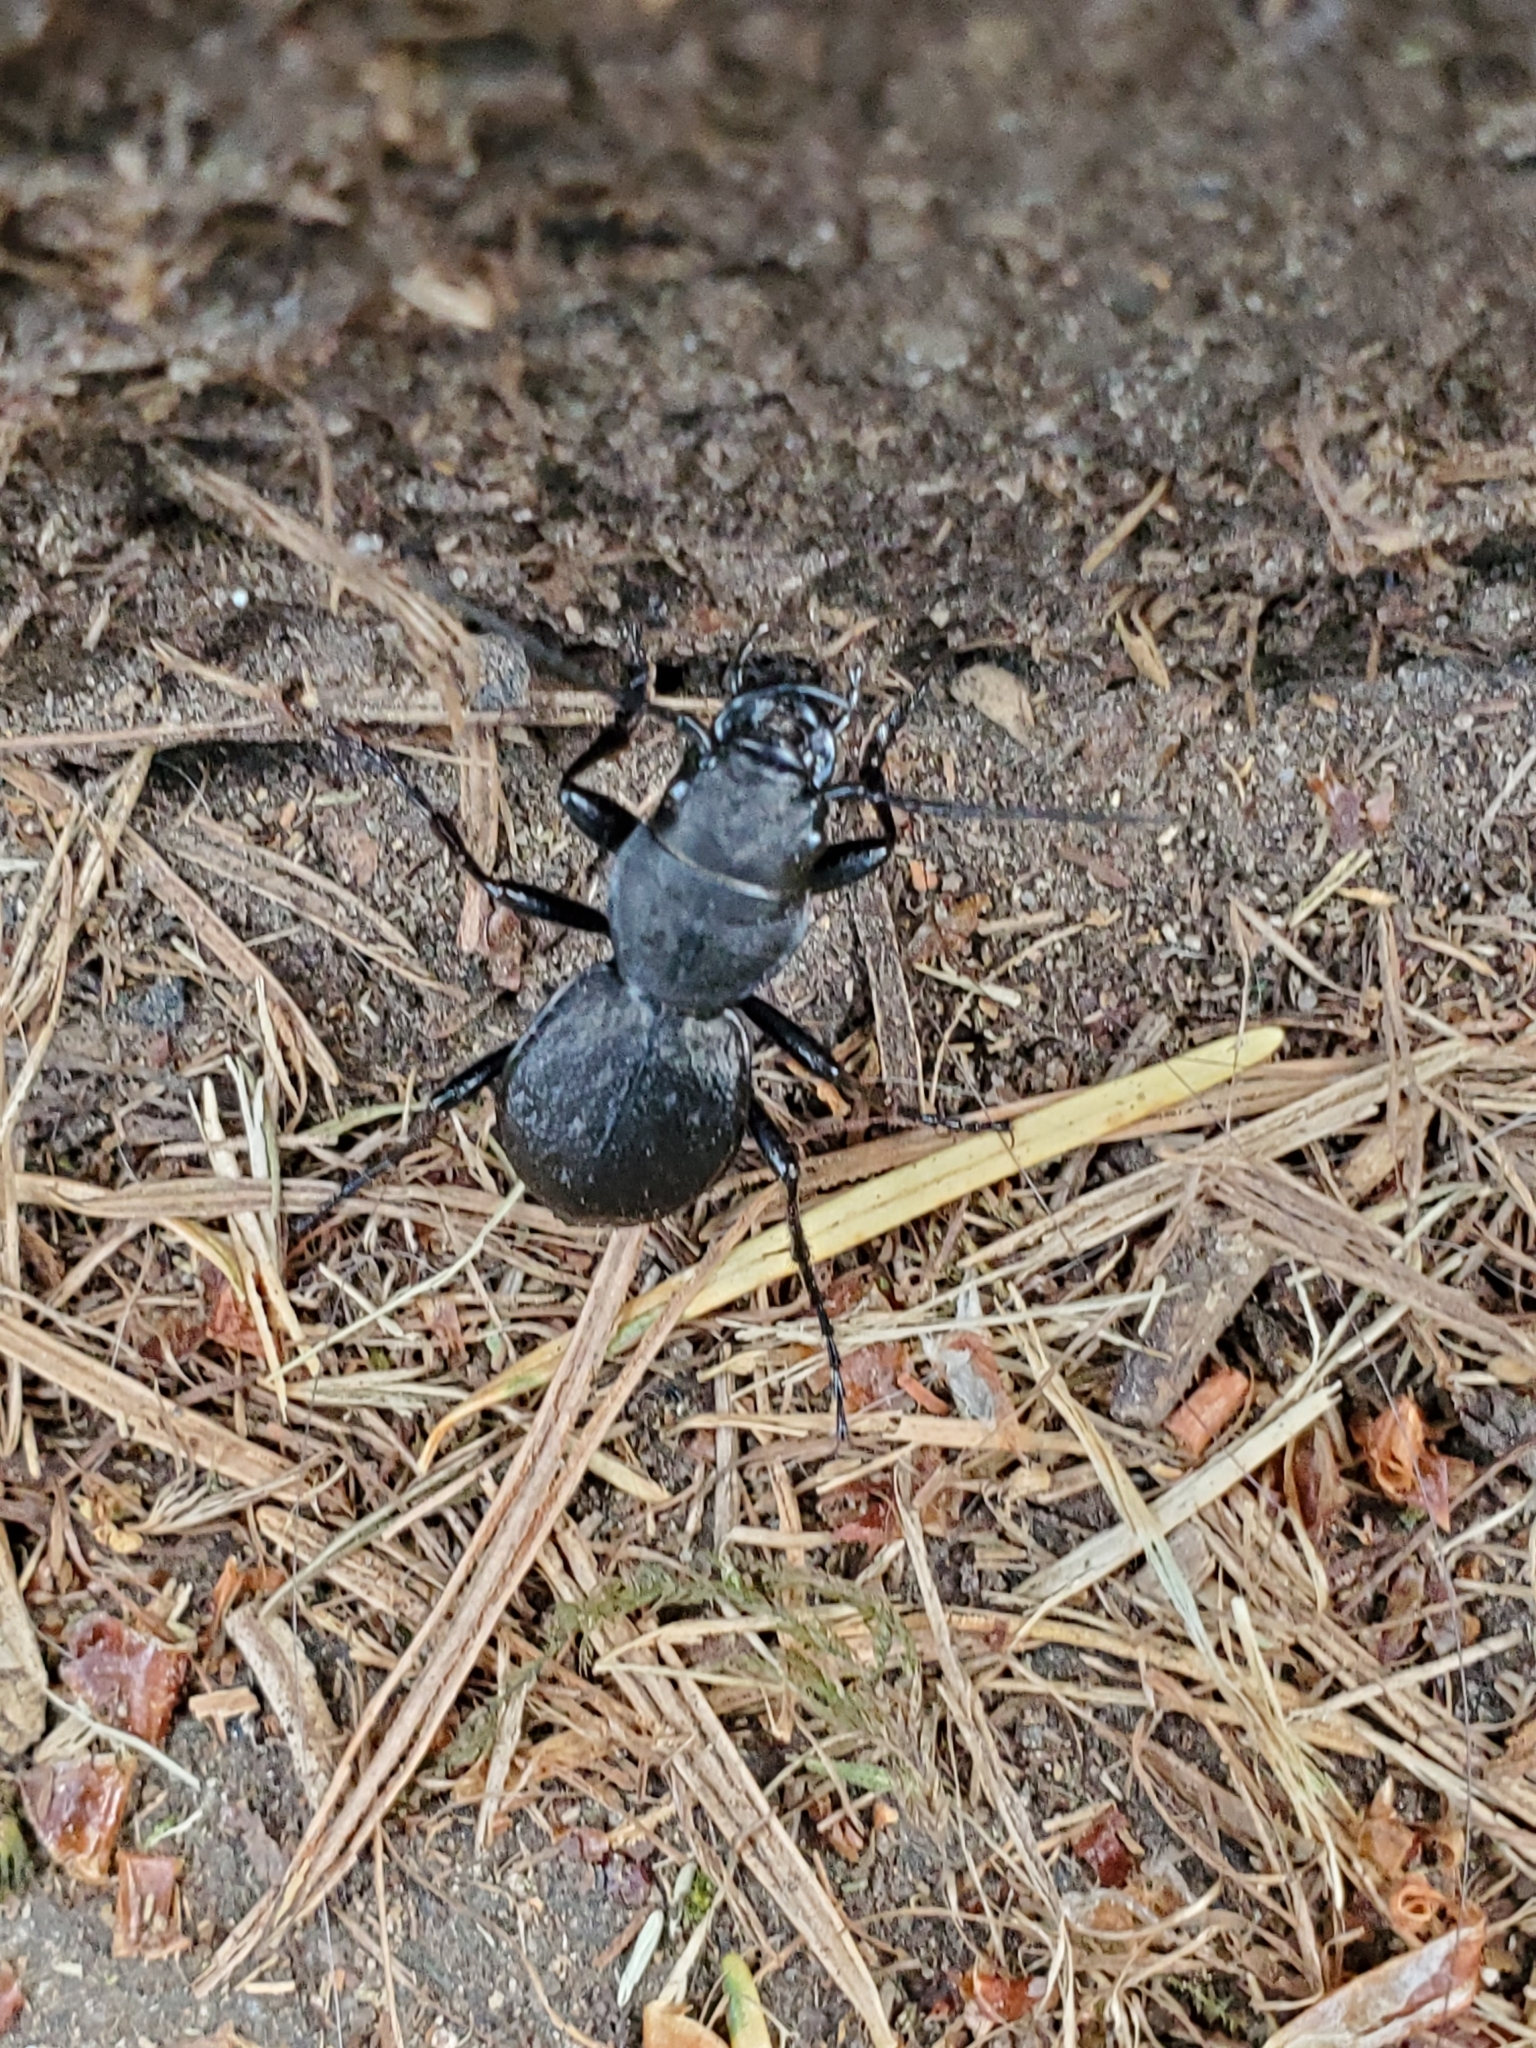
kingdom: Animalia
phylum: Arthropoda
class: Insecta
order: Coleoptera
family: Carabidae
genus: Omus
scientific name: Omus dejeanii
